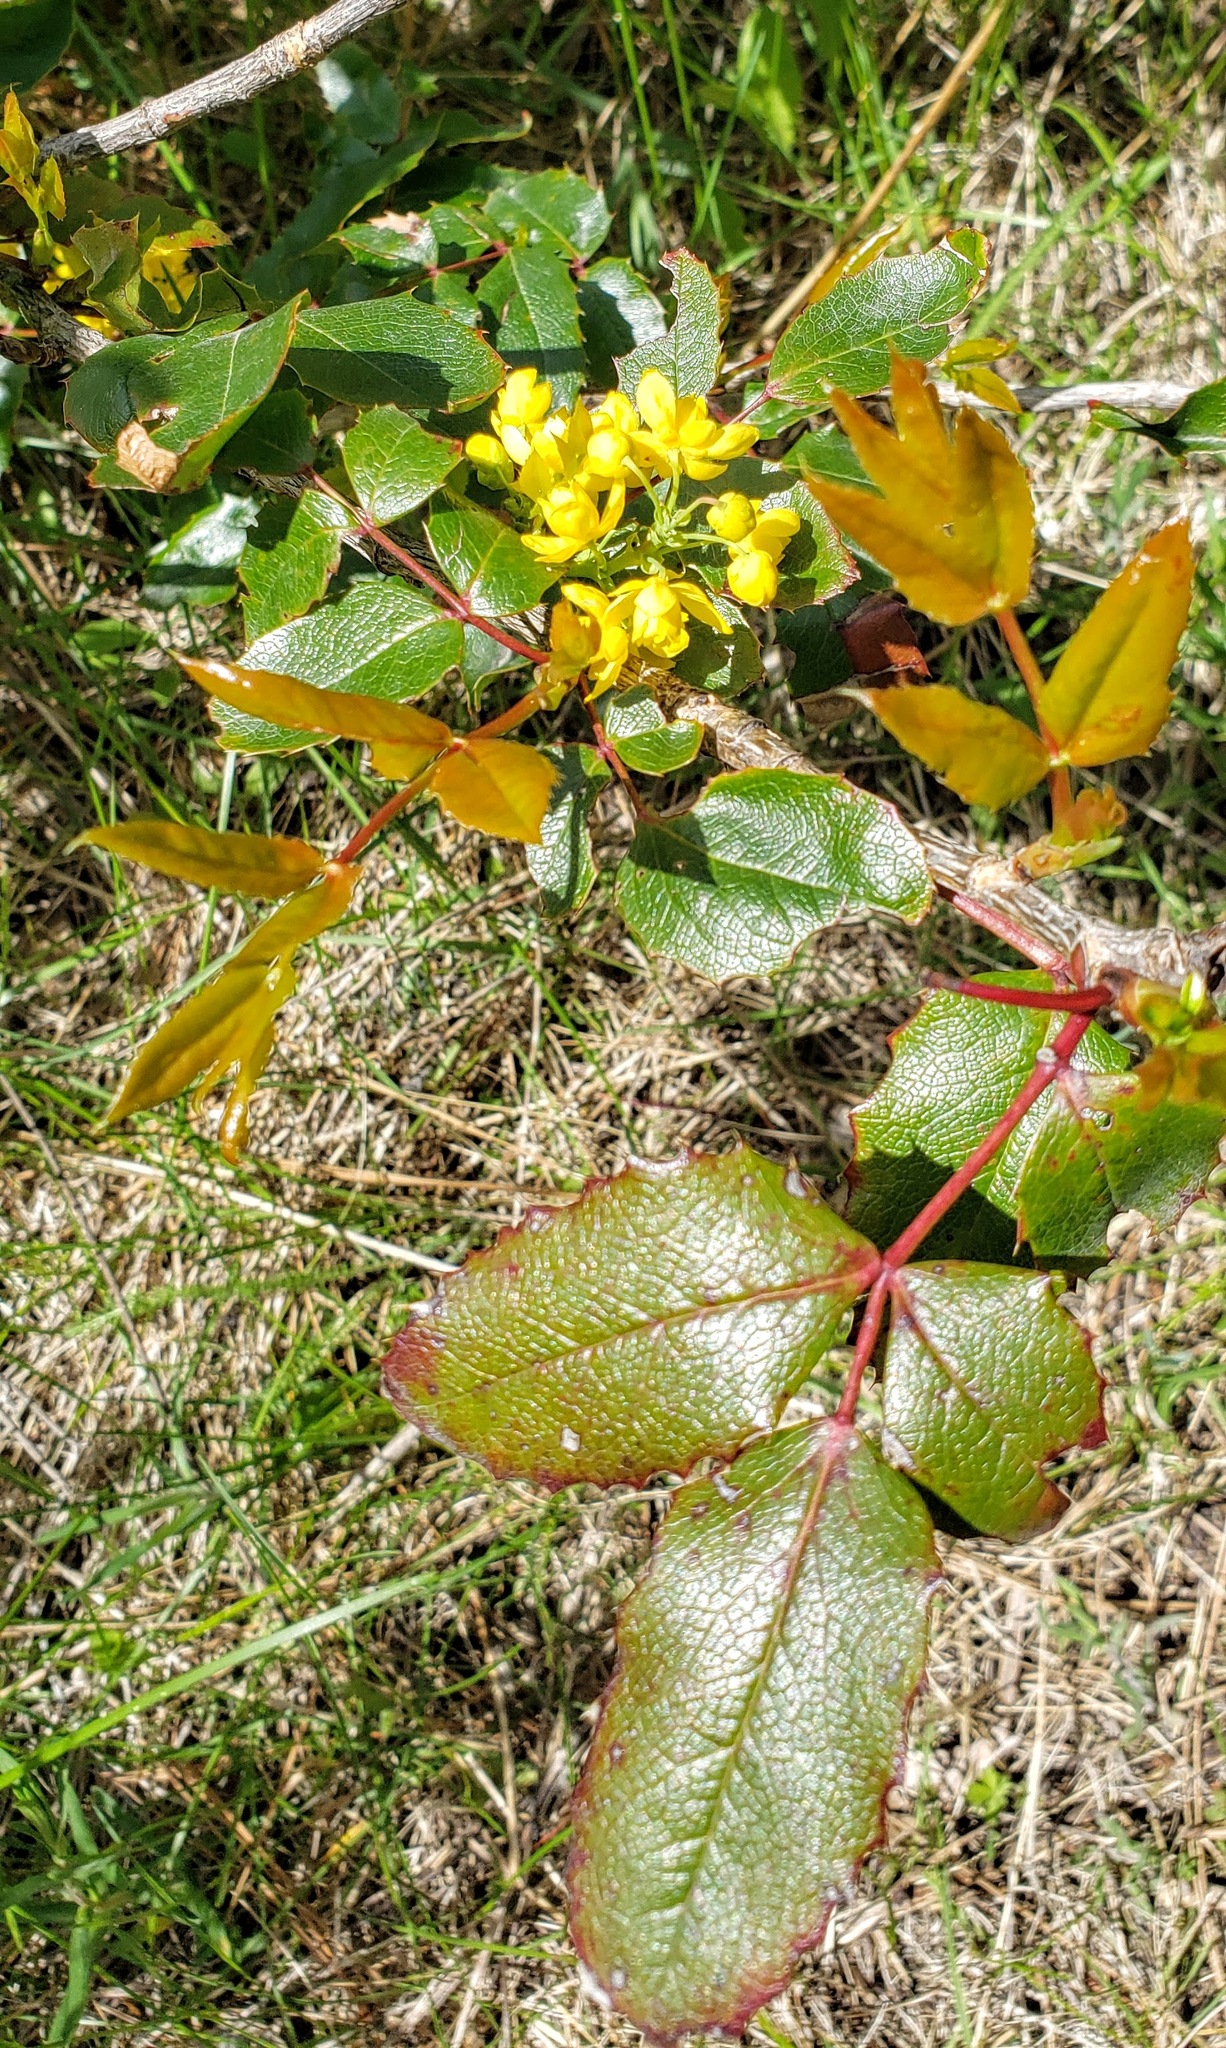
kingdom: Plantae
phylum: Tracheophyta
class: Magnoliopsida
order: Ranunculales
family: Berberidaceae
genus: Mahonia
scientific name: Mahonia aquifolium
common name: Oregon-grape
